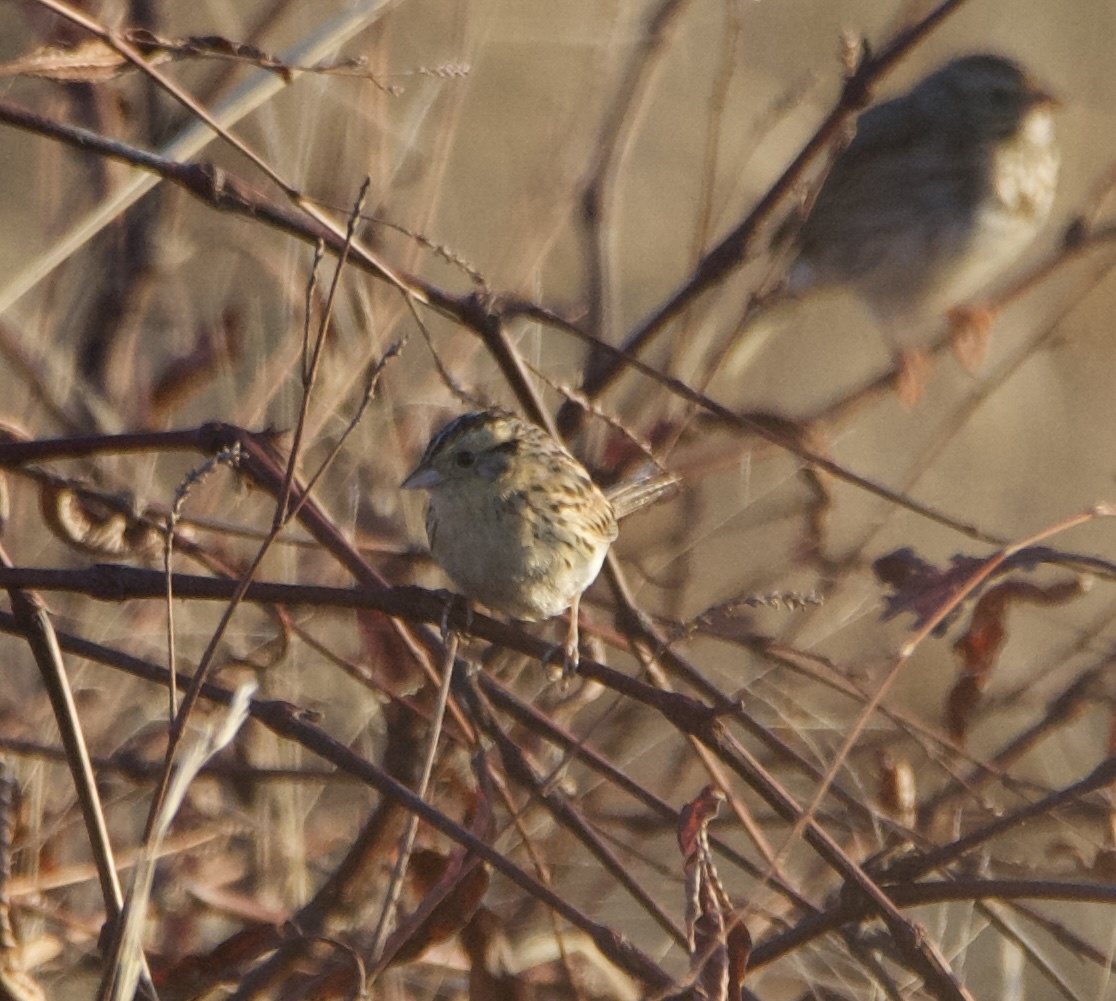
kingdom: Animalia
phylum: Chordata
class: Aves
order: Passeriformes
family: Passerellidae
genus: Ammospiza
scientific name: Ammospiza leconteii
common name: Le conte's sparrow
